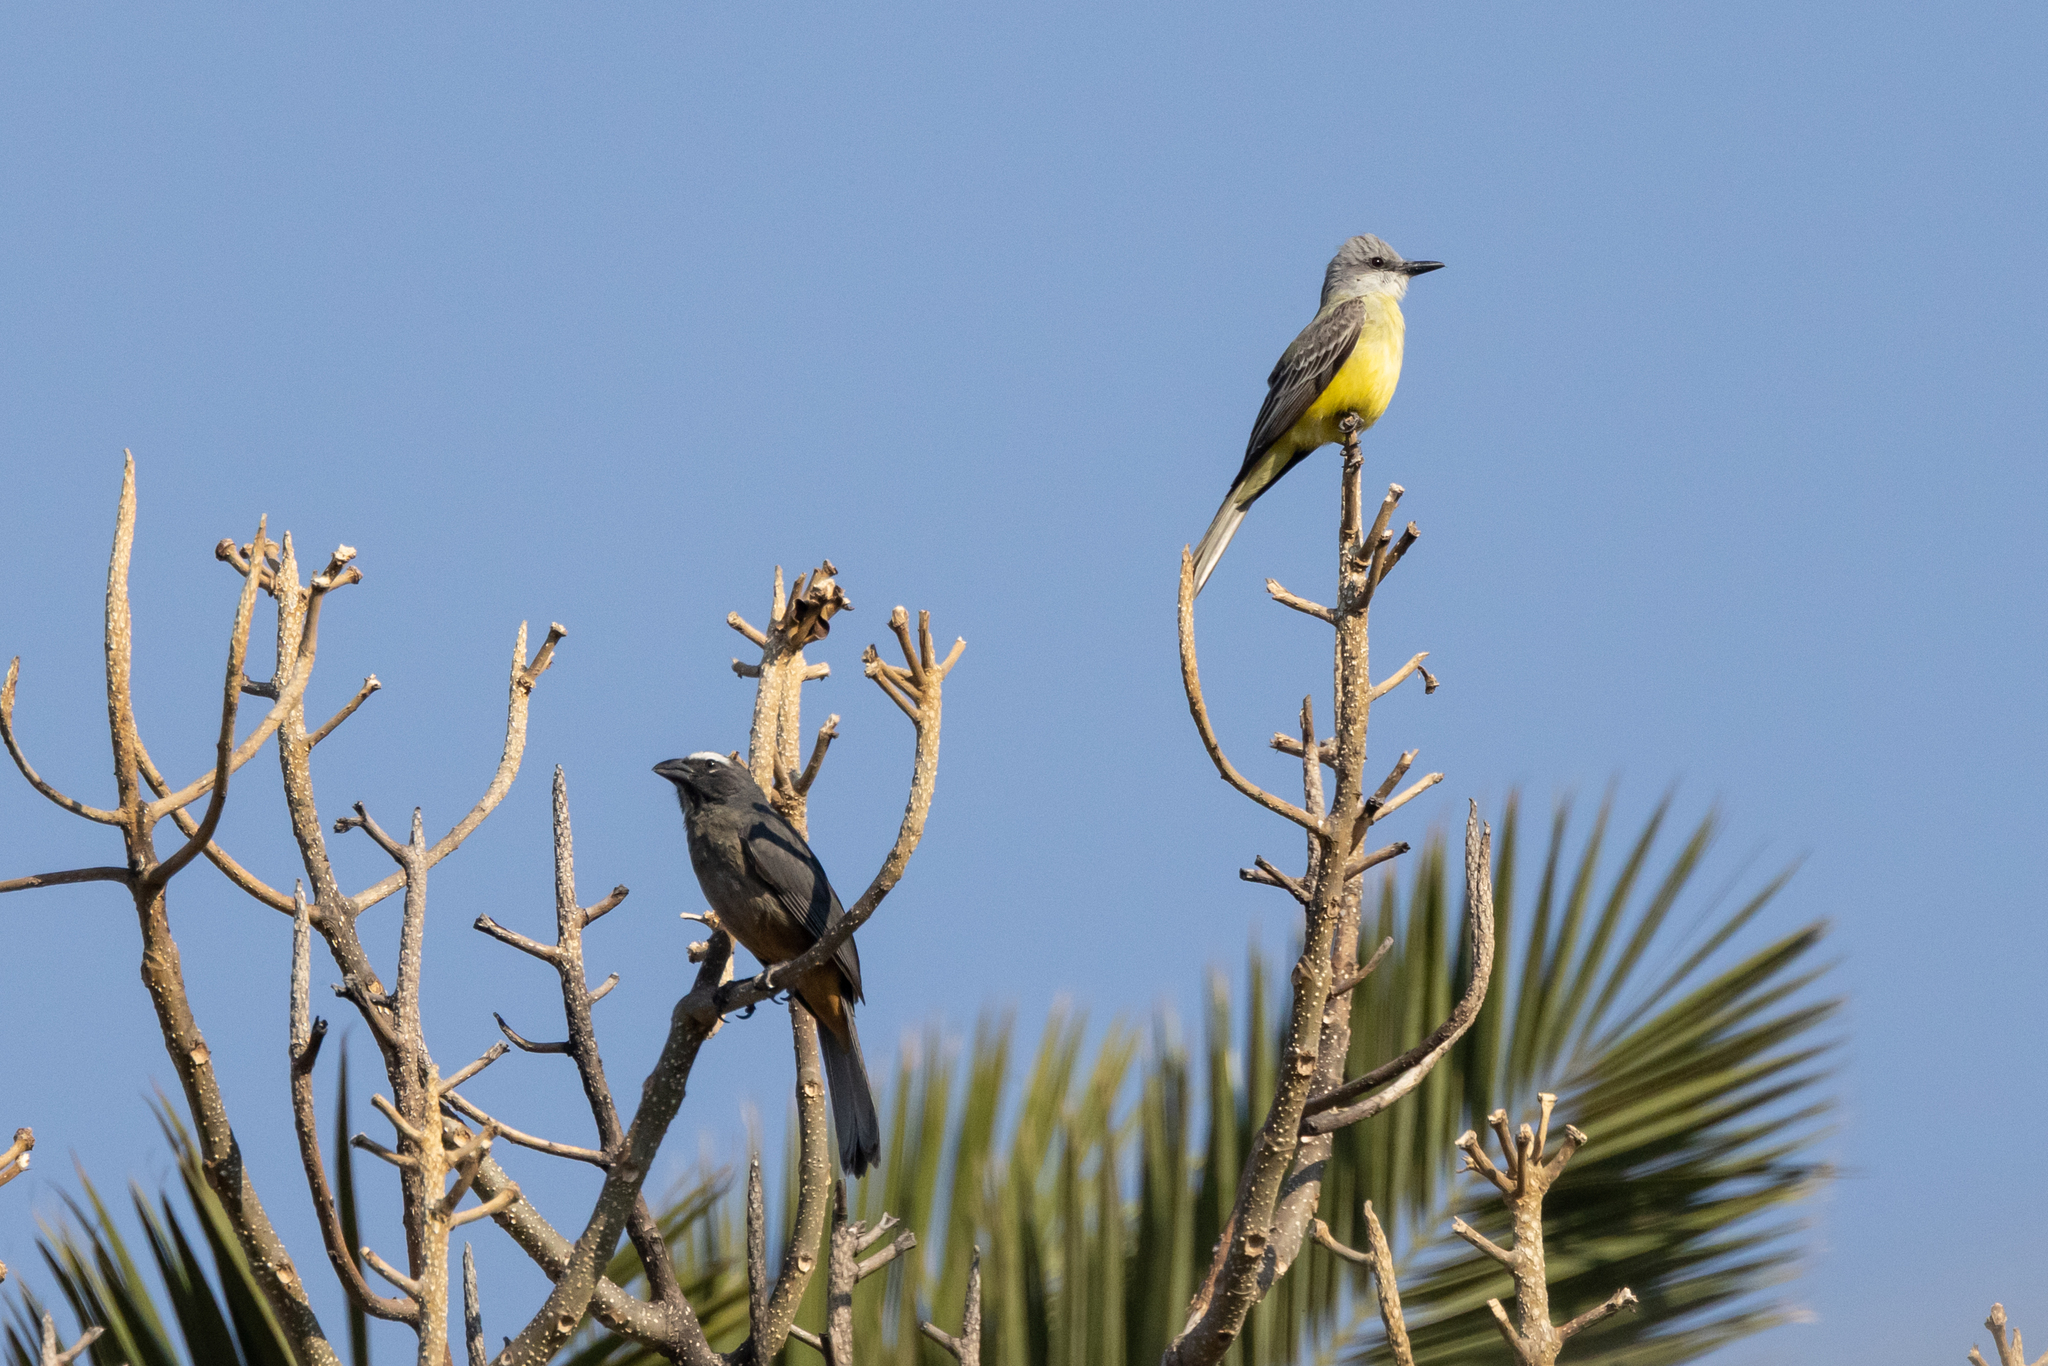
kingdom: Animalia
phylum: Chordata
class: Aves
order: Passeriformes
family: Tyrannidae
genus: Tyrannus
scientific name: Tyrannus melancholicus
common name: Tropical kingbird
